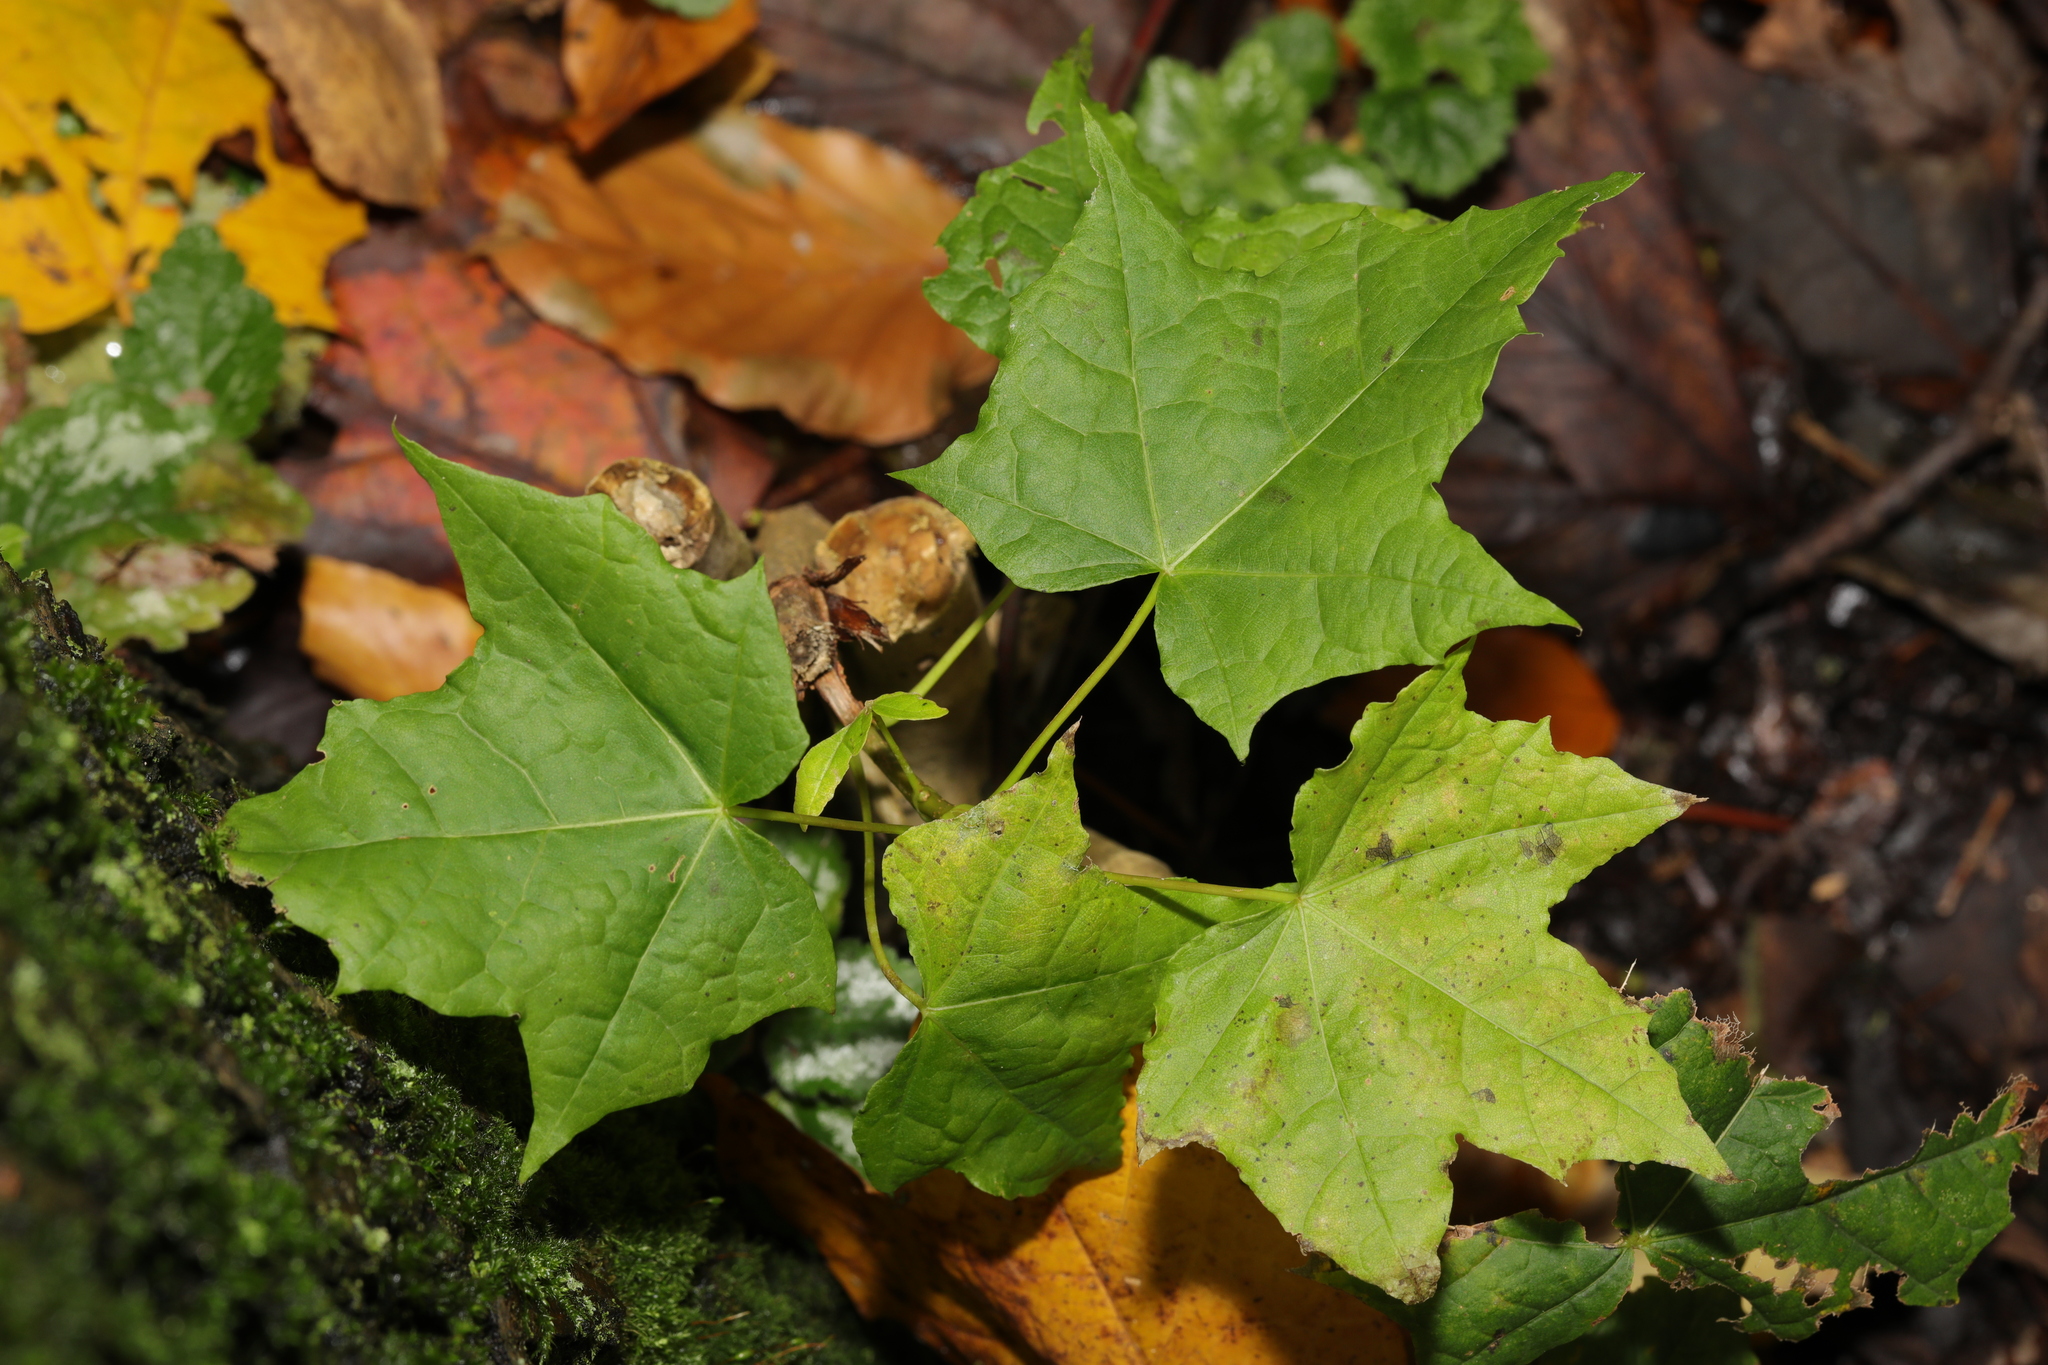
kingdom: Plantae
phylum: Tracheophyta
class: Magnoliopsida
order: Sapindales
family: Sapindaceae
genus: Acer
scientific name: Acer platanoides
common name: Norway maple
